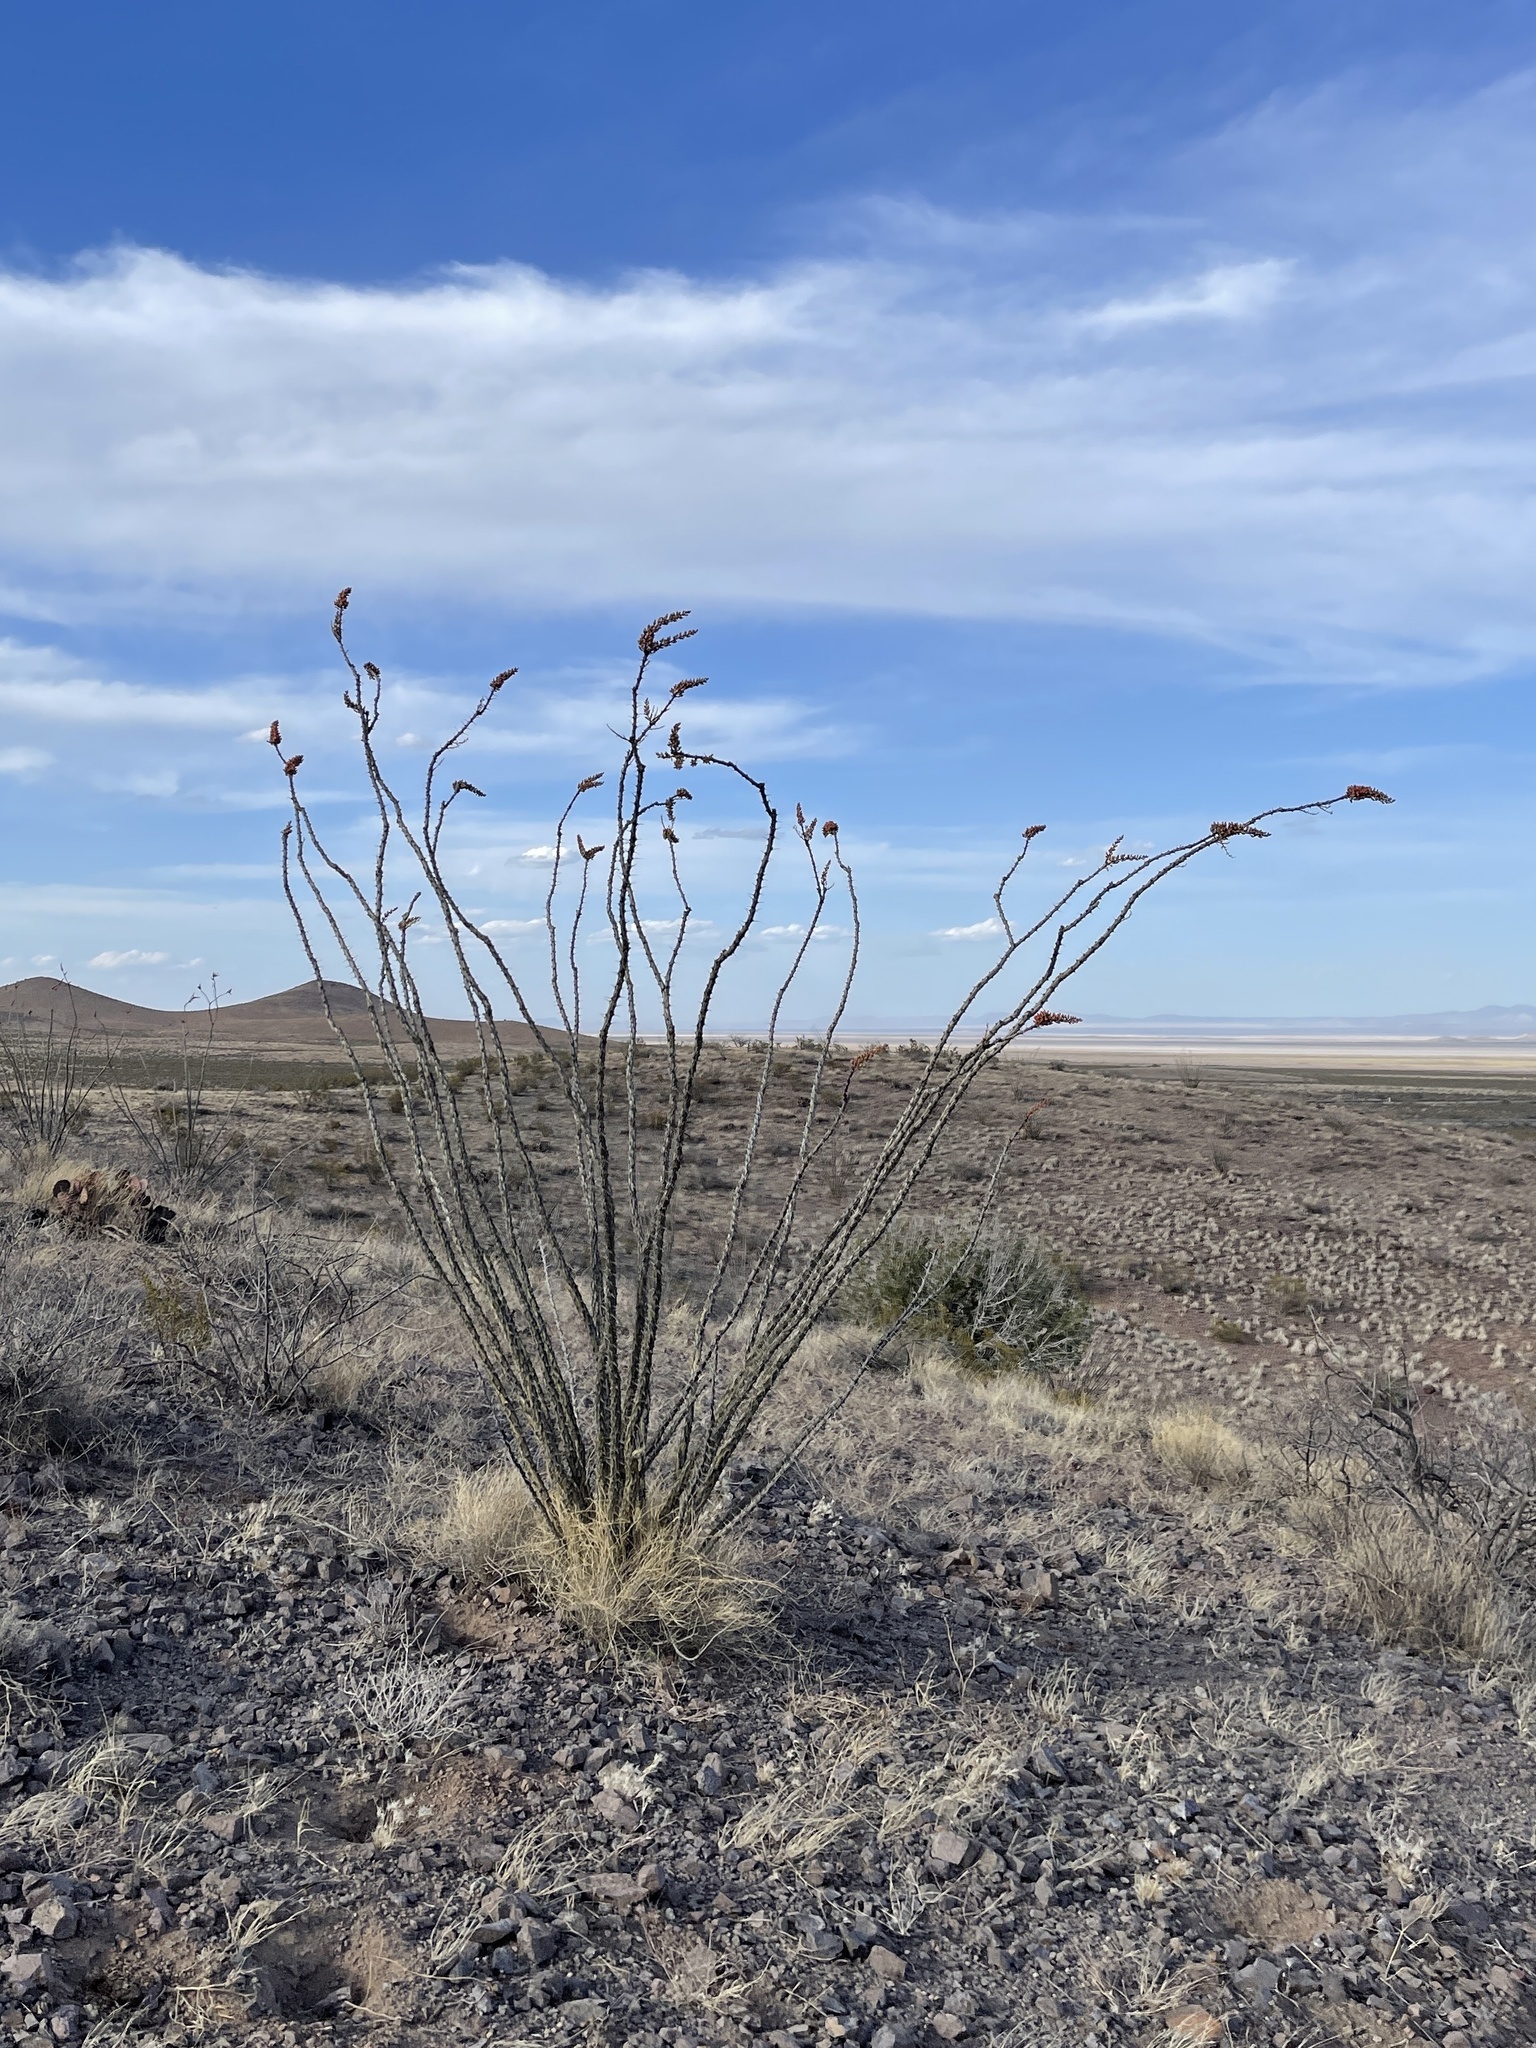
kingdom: Plantae
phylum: Tracheophyta
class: Magnoliopsida
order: Ericales
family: Fouquieriaceae
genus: Fouquieria
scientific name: Fouquieria splendens
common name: Vine-cactus
